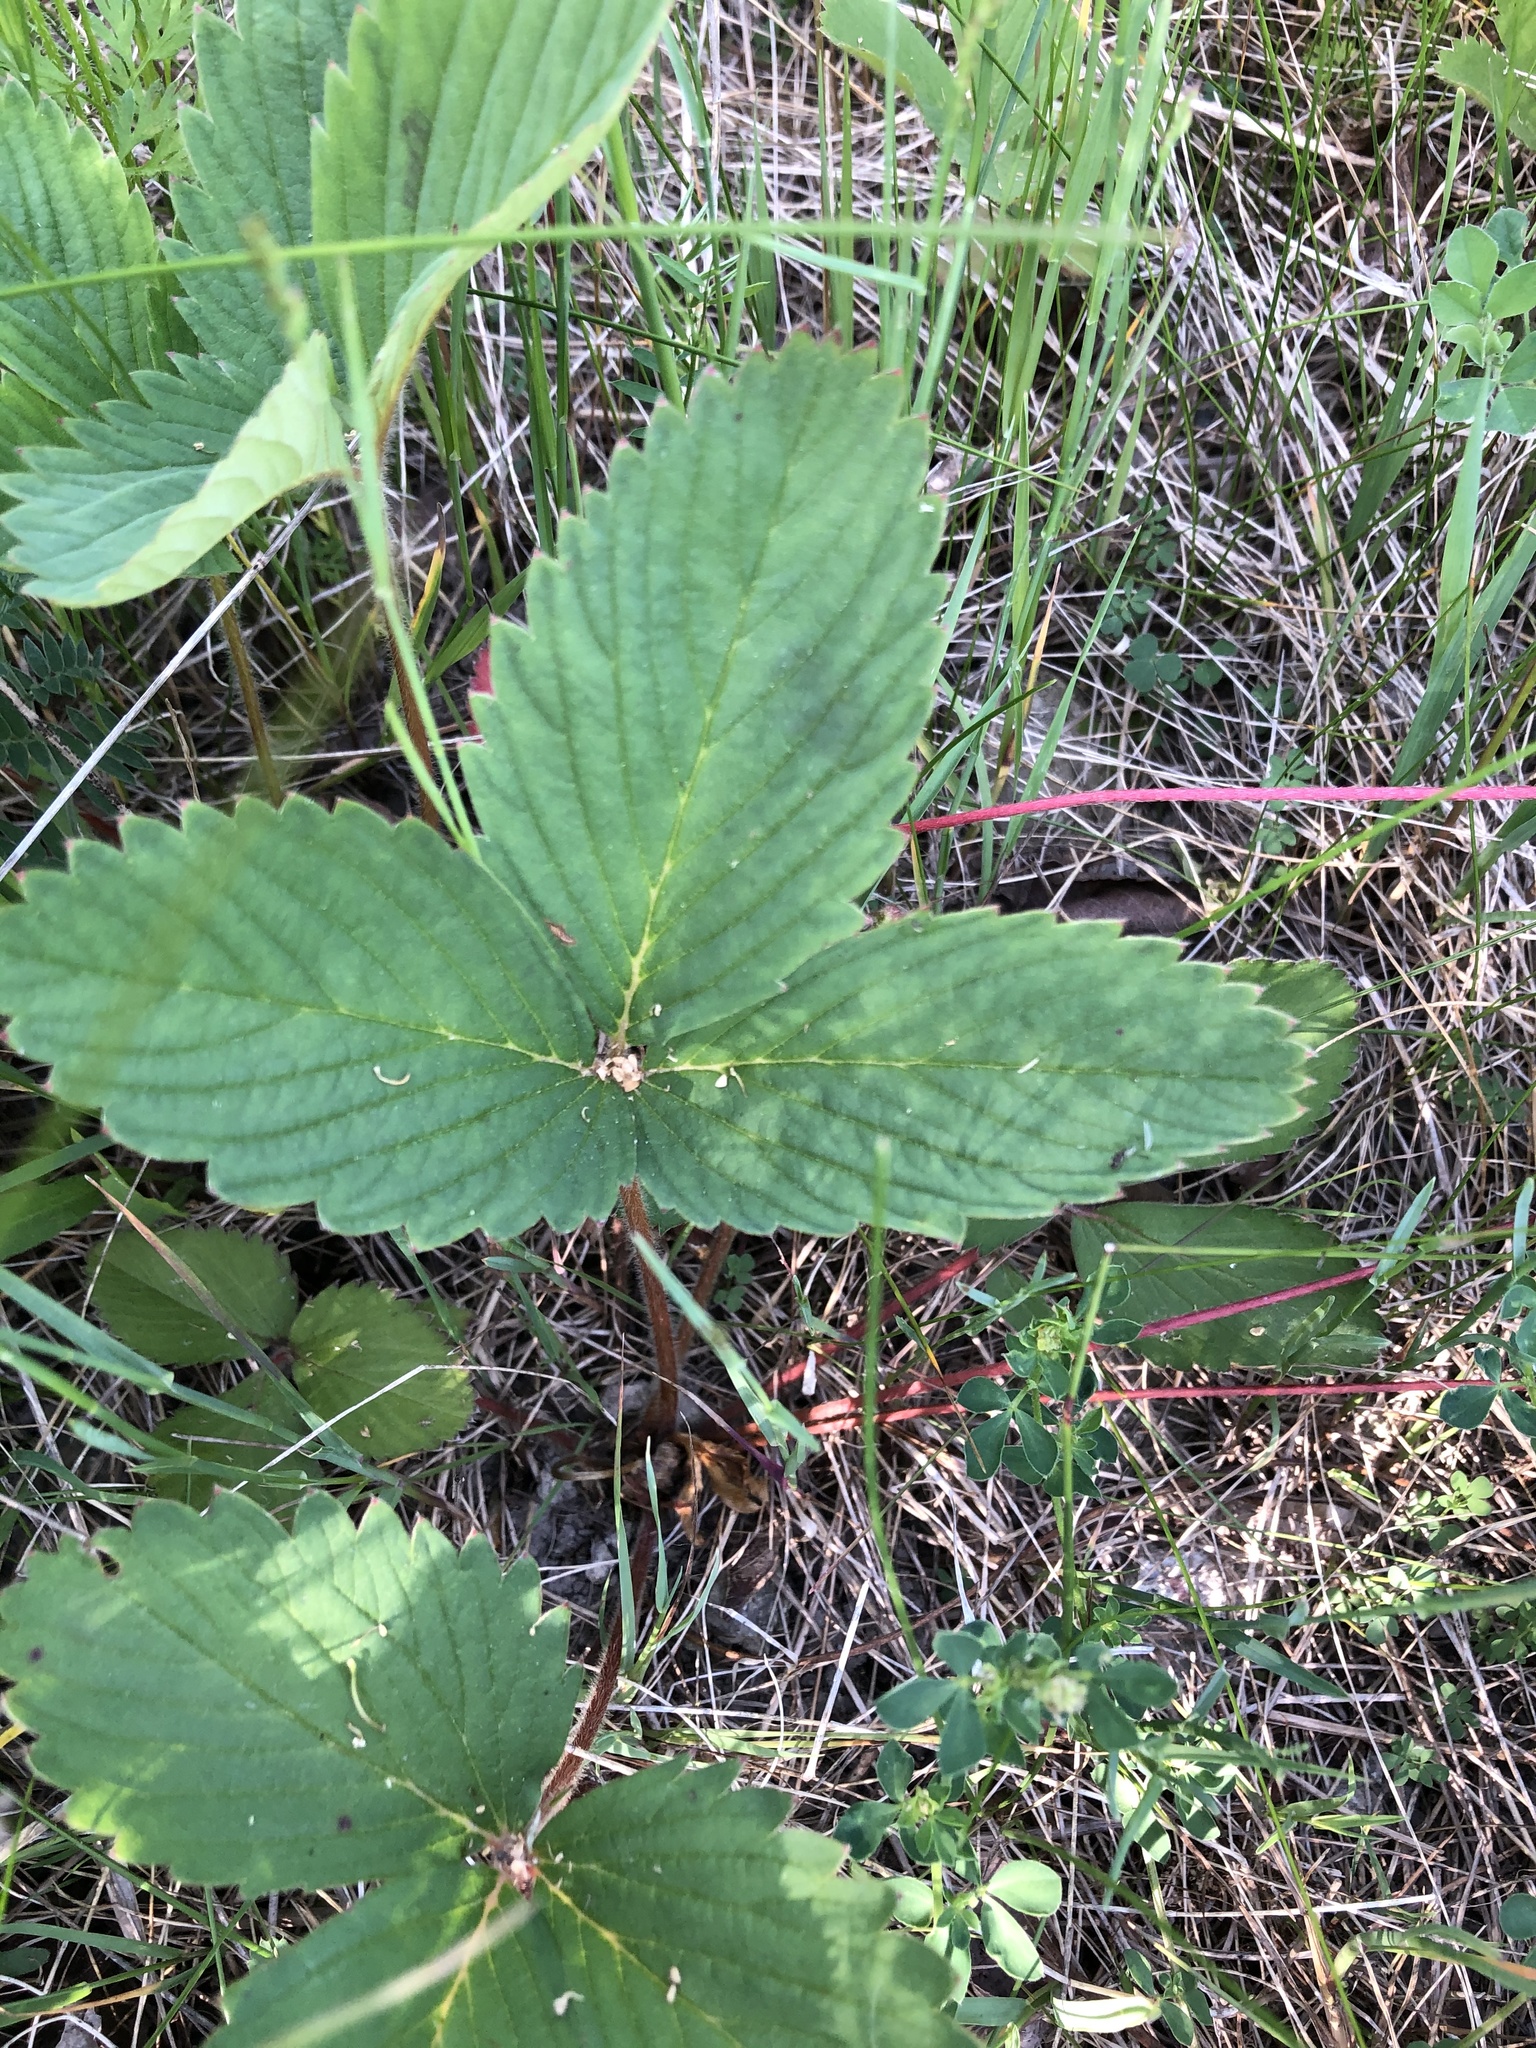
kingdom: Plantae
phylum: Tracheophyta
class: Magnoliopsida
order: Rosales
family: Rosaceae
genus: Fragaria
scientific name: Fragaria virginiana
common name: Thickleaved wild strawberry
